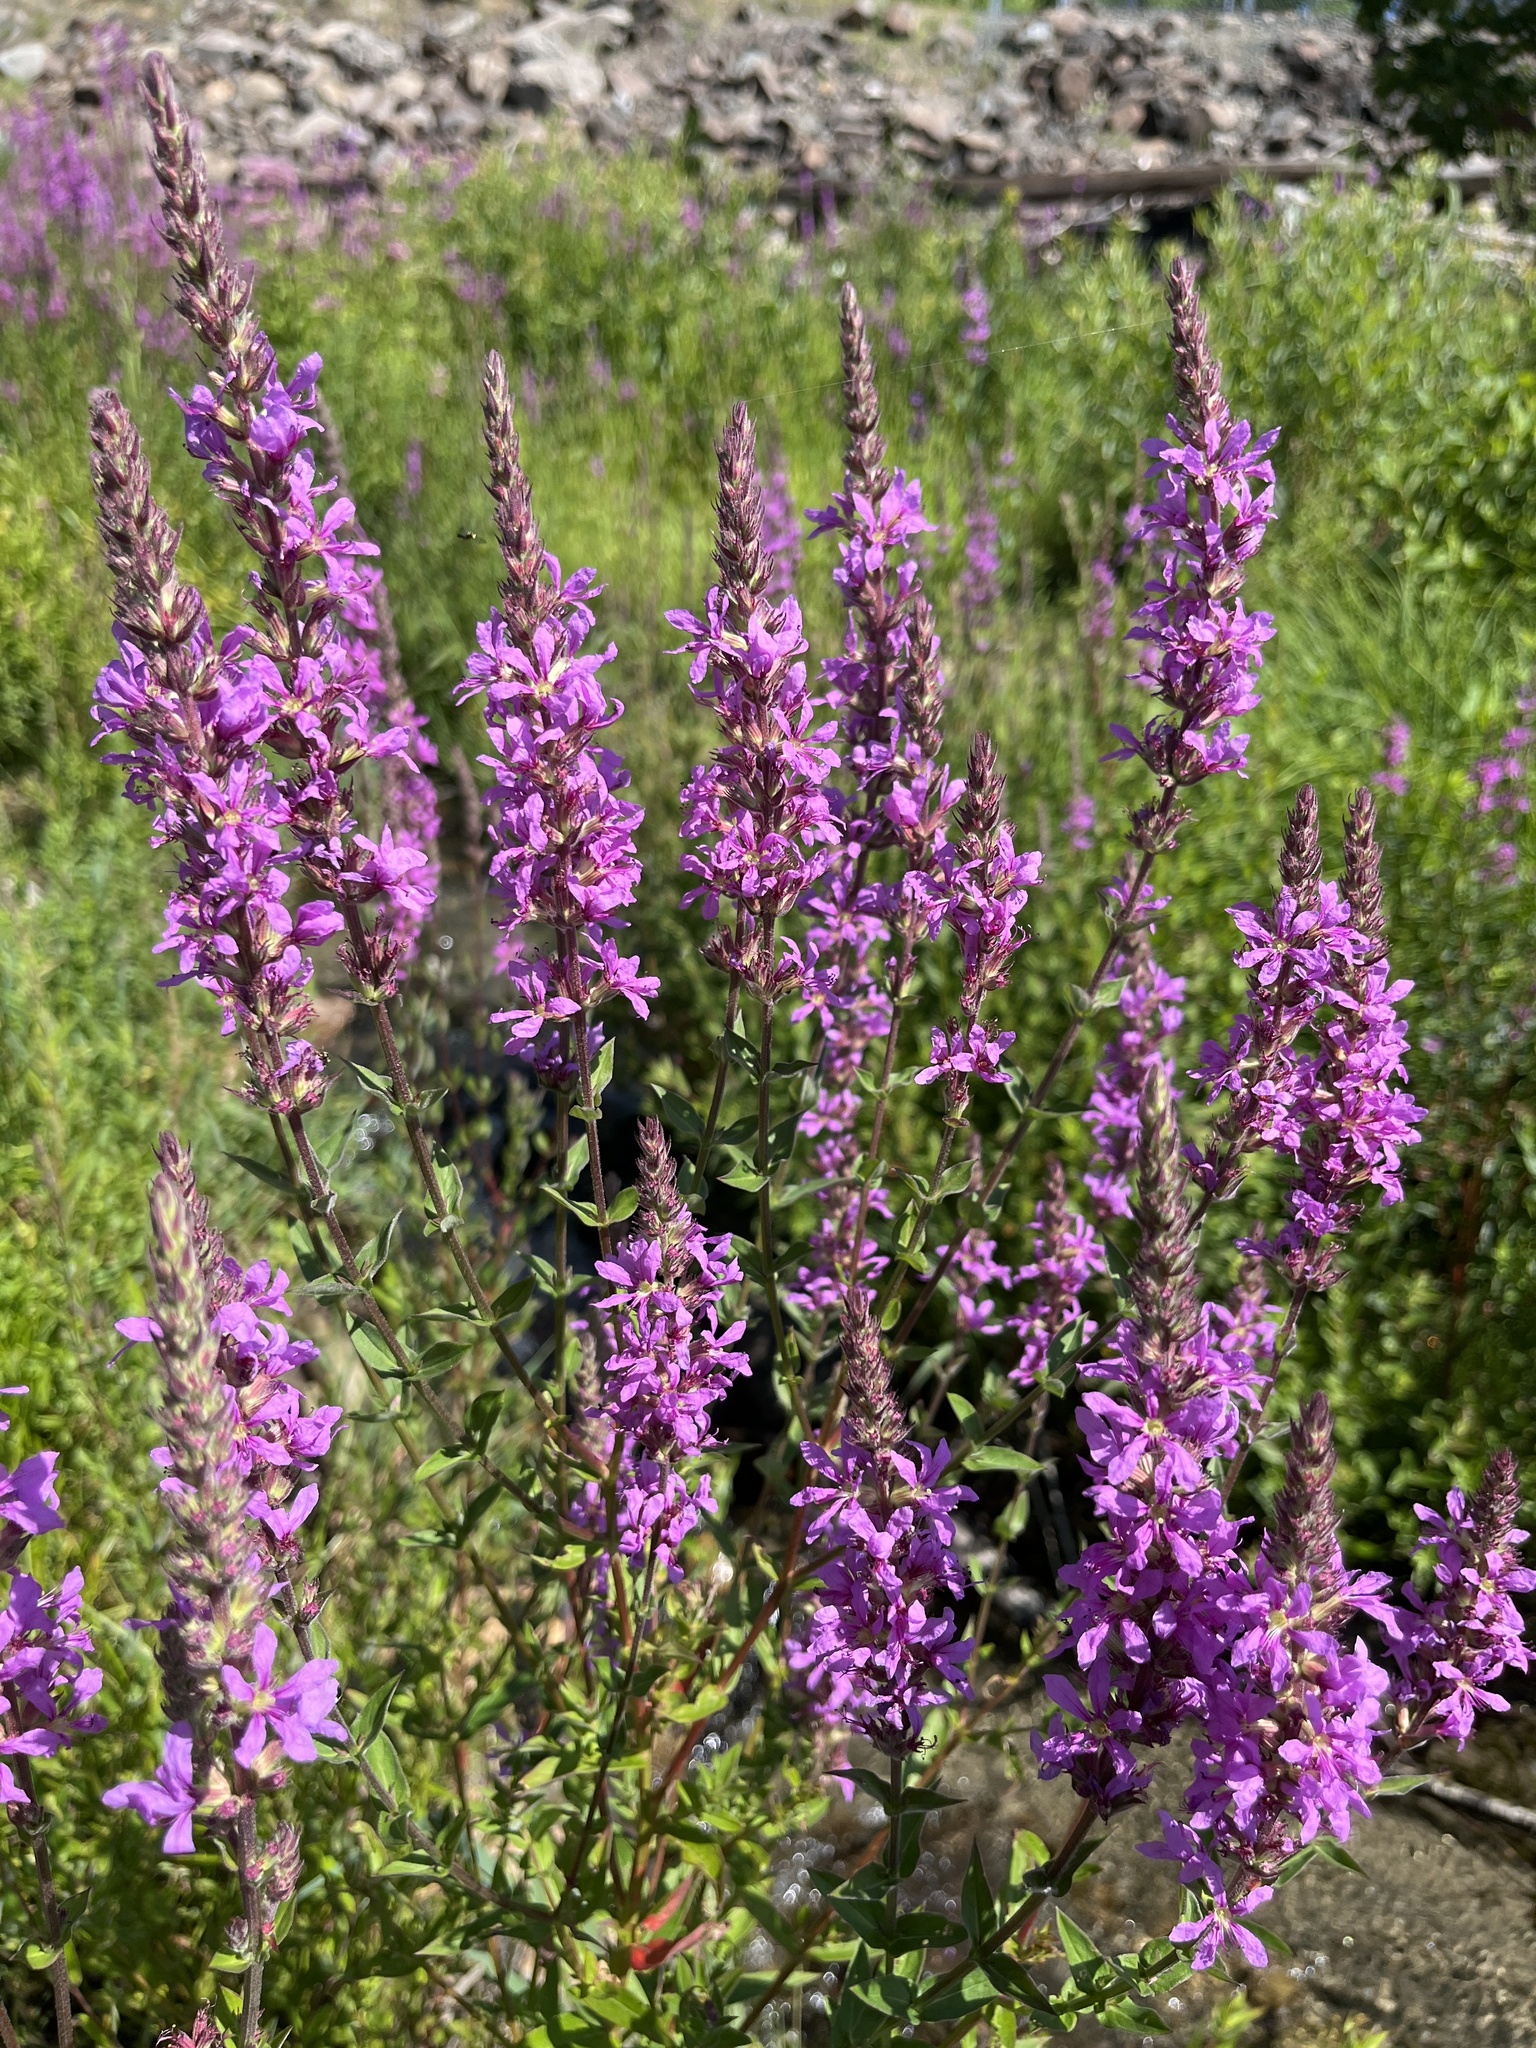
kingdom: Plantae
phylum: Tracheophyta
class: Magnoliopsida
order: Myrtales
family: Lythraceae
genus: Lythrum
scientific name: Lythrum salicaria
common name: Purple loosestrife
